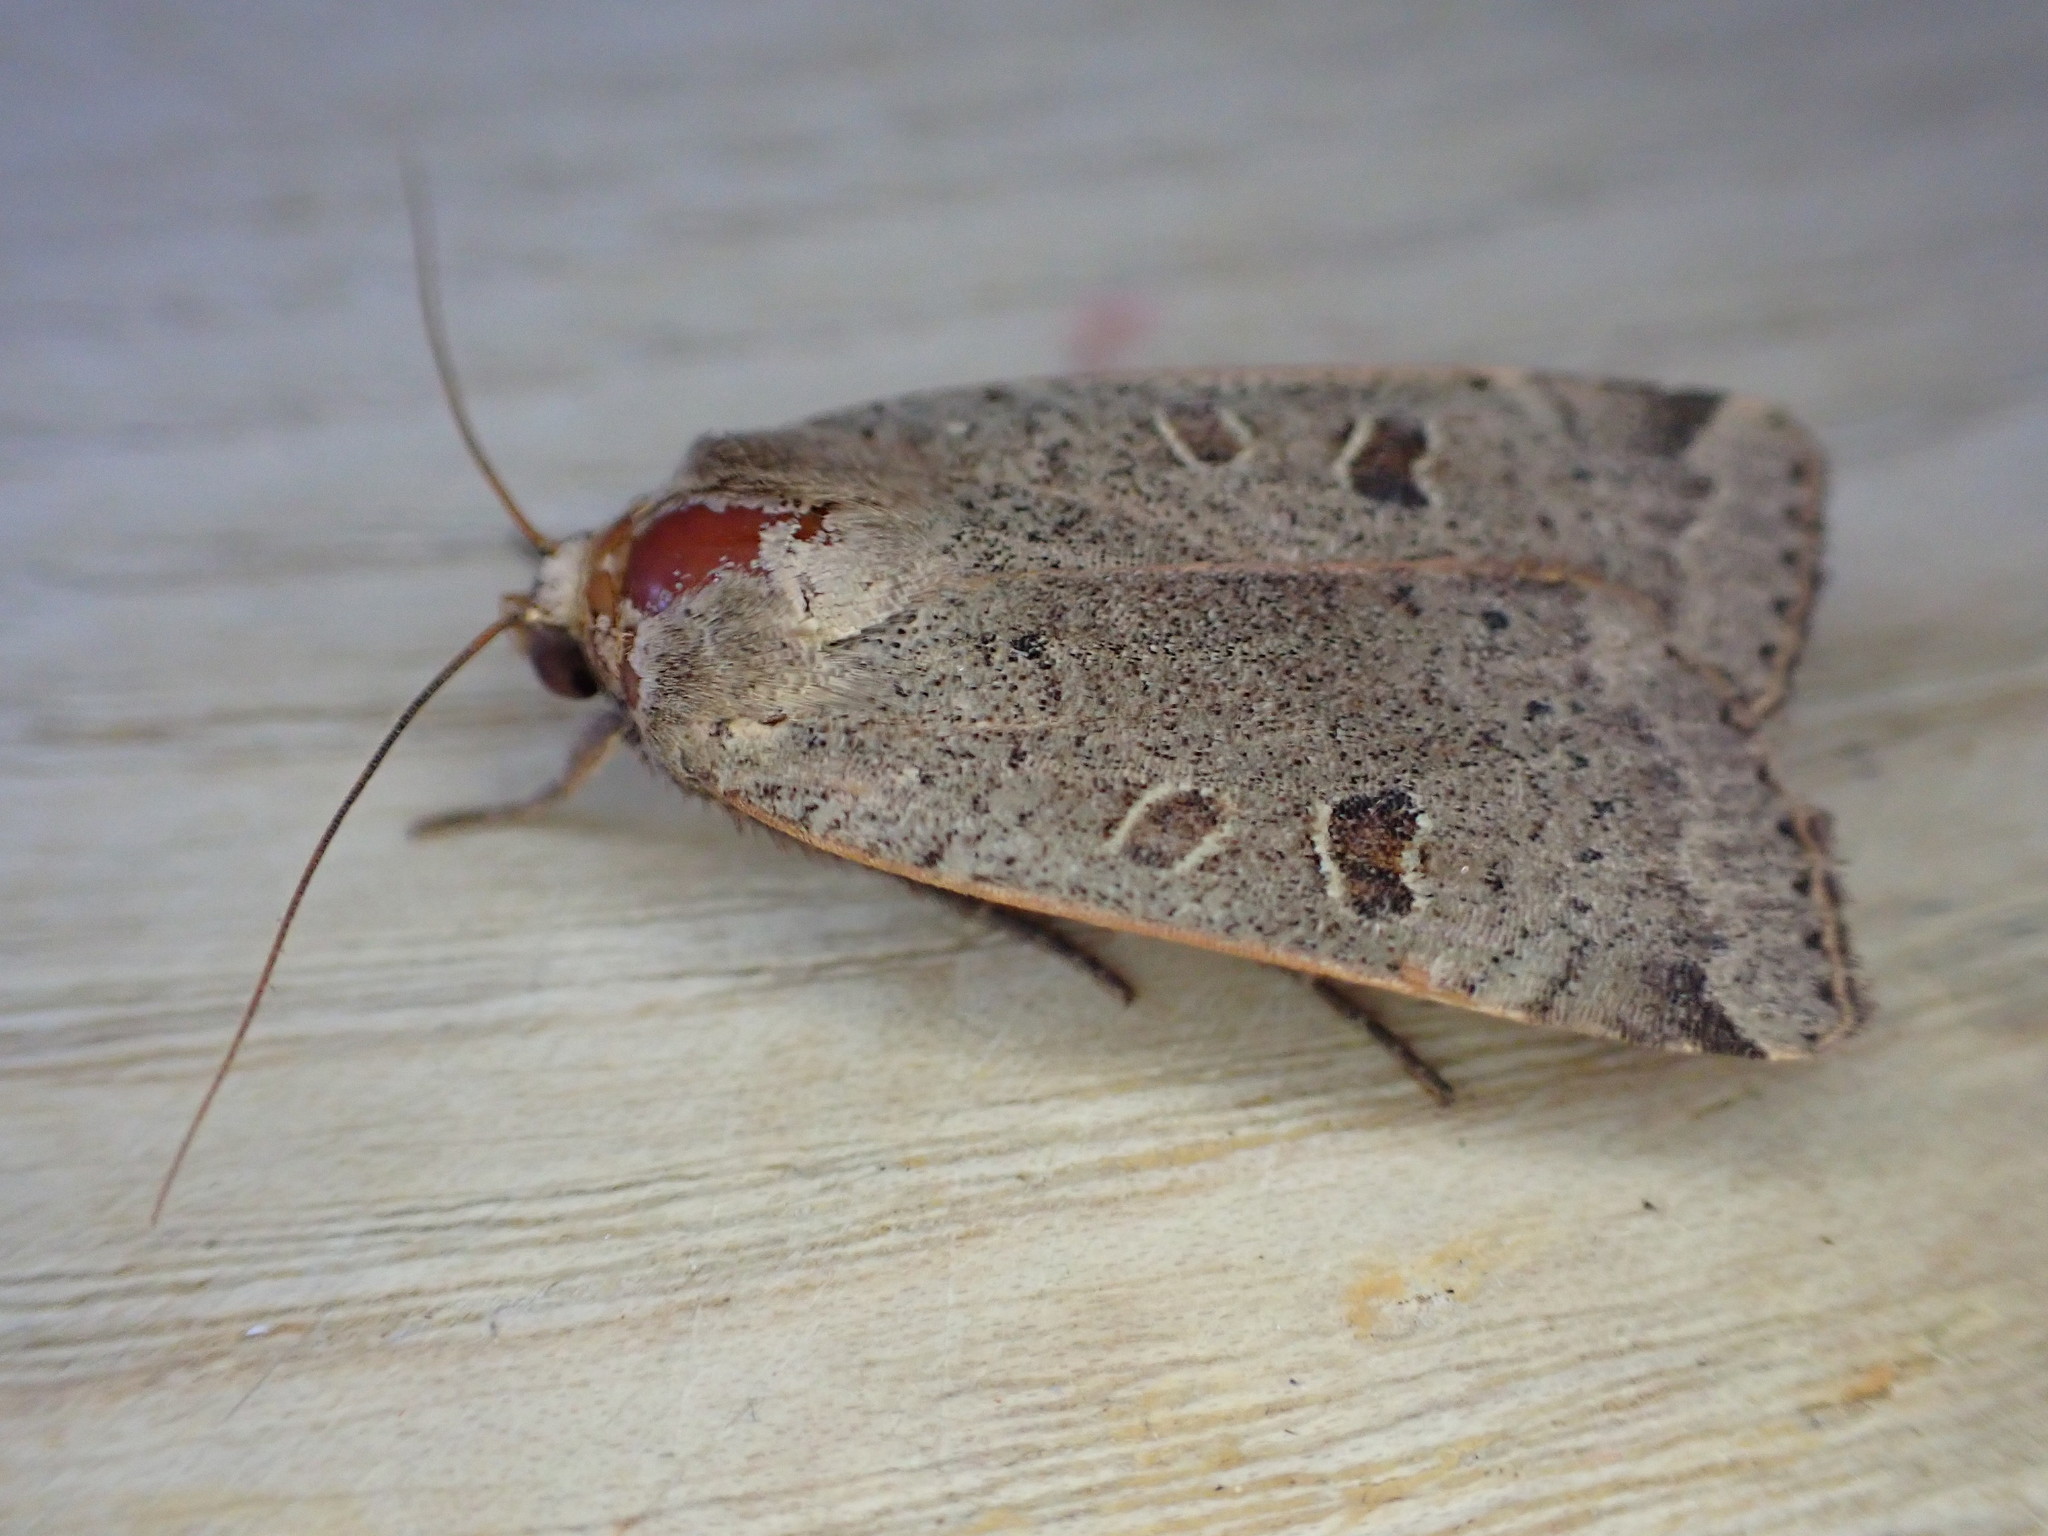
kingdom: Animalia
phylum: Arthropoda
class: Insecta
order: Lepidoptera
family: Noctuidae
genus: Noctua
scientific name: Noctua comes
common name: Lesser yellow underwing
